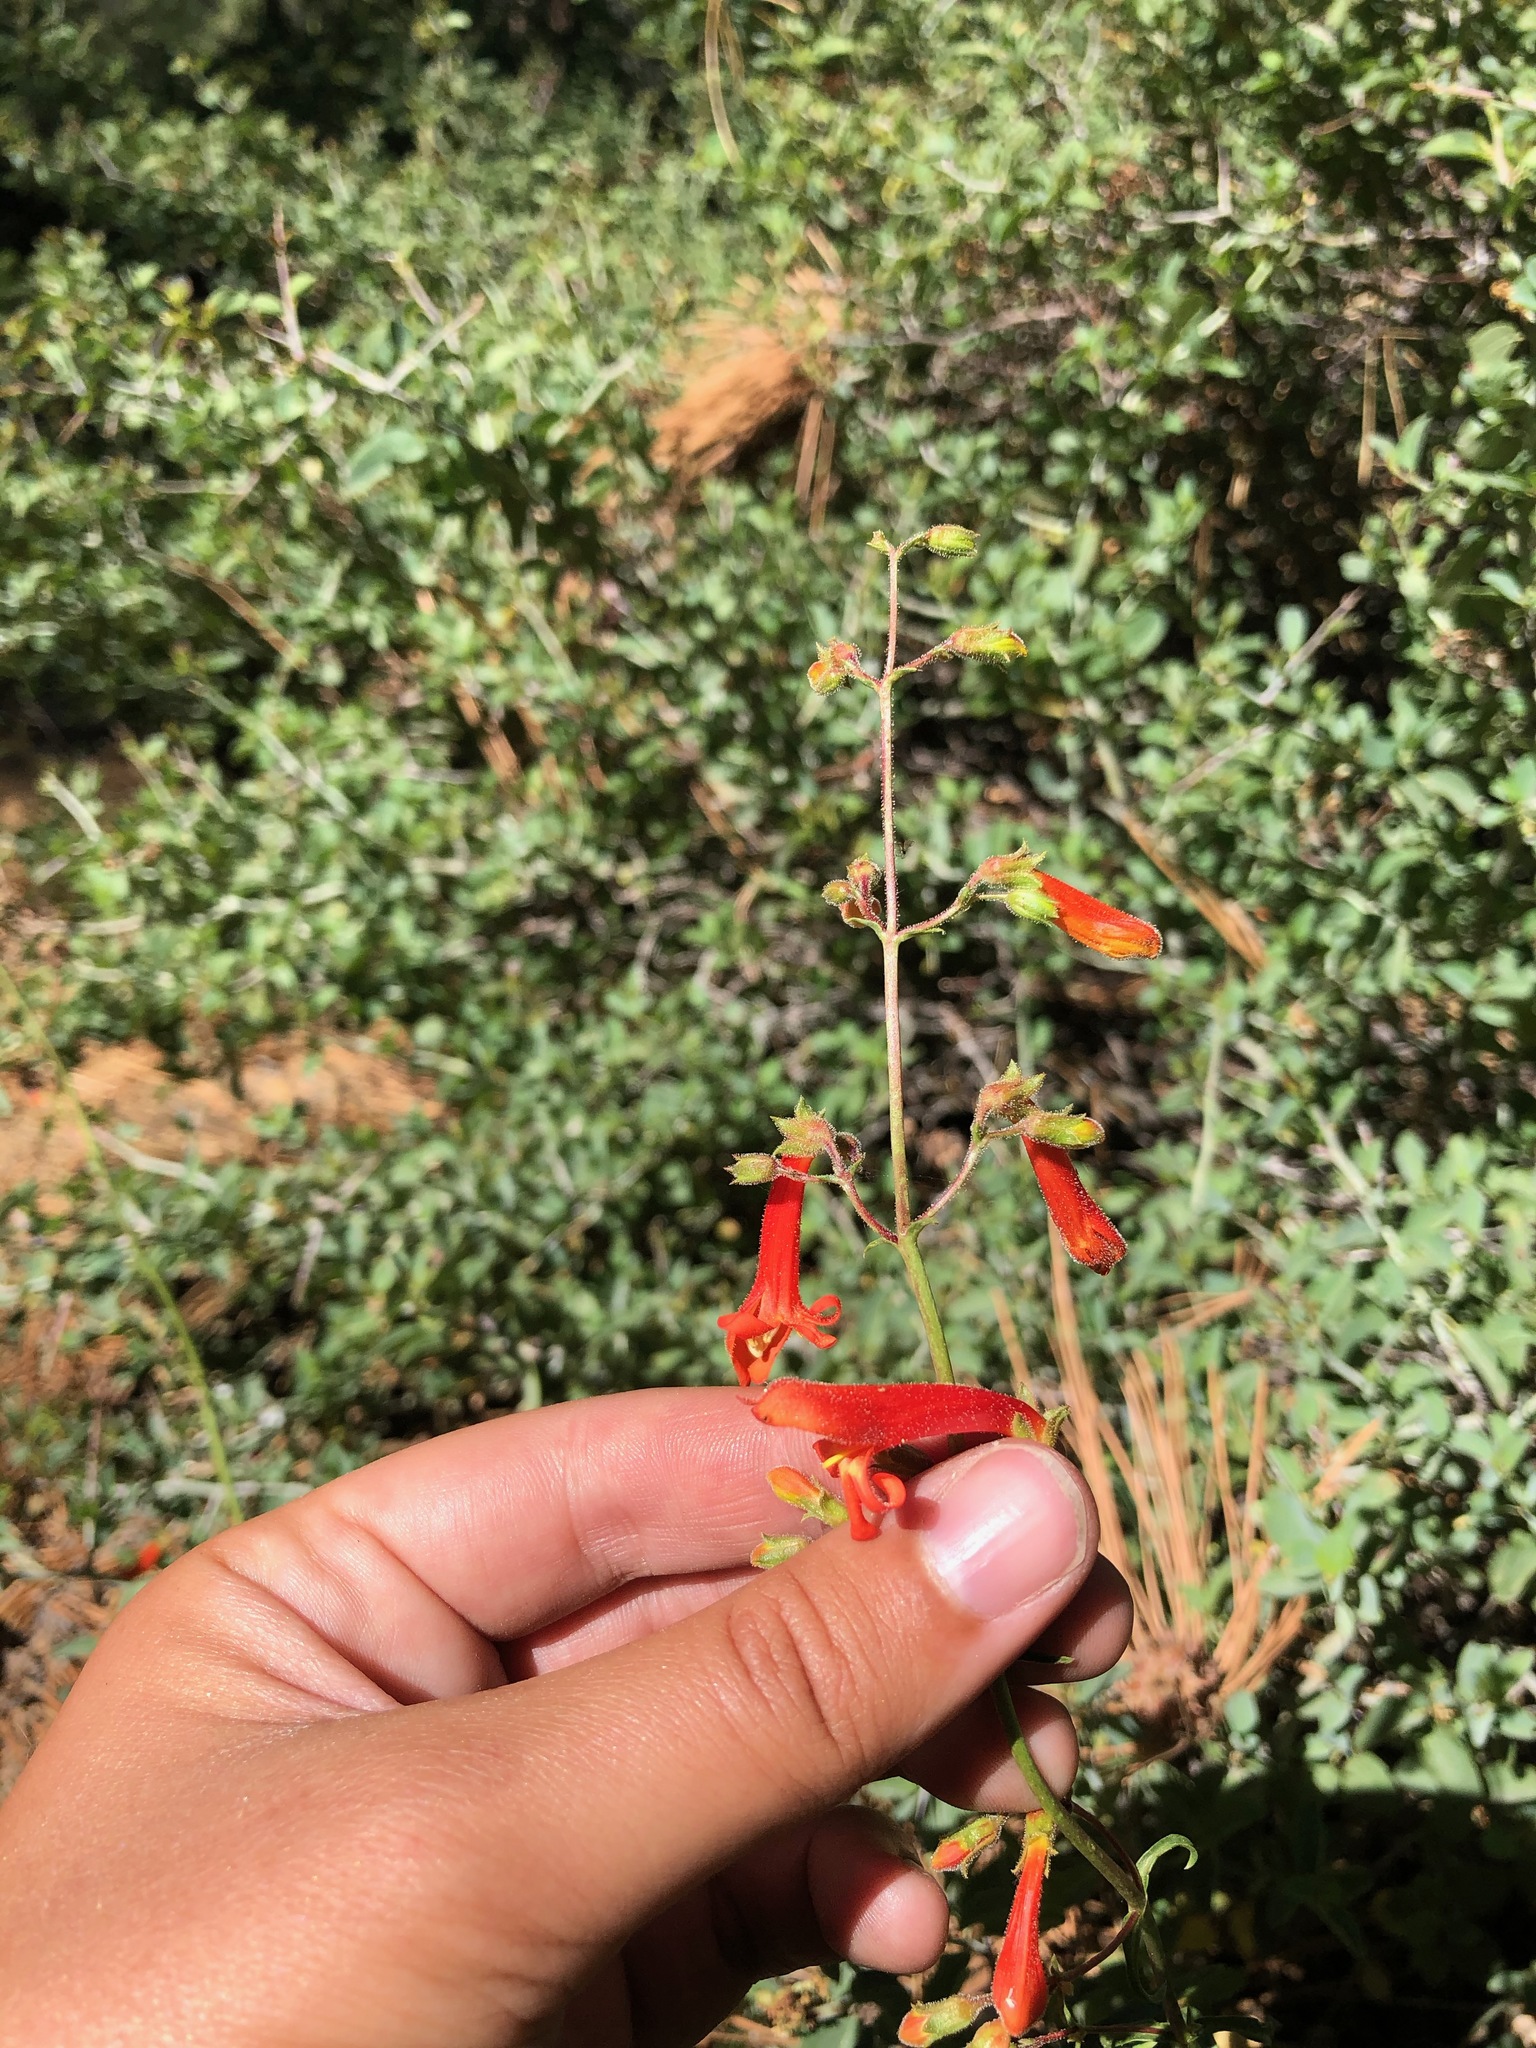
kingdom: Plantae
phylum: Tracheophyta
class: Magnoliopsida
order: Lamiales
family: Plantaginaceae
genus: Penstemon
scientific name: Penstemon rostriflorus
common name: Bridges's penstemon
